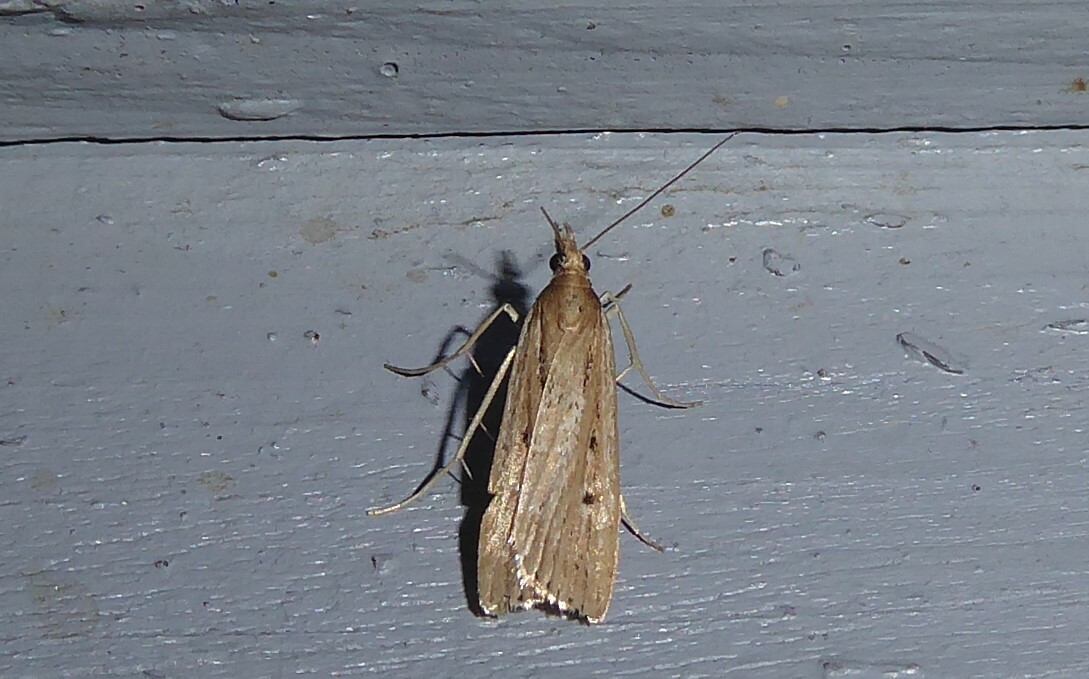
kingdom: Animalia
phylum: Arthropoda
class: Insecta
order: Lepidoptera
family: Crambidae
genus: Eudonia
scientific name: Eudonia sabulosella
